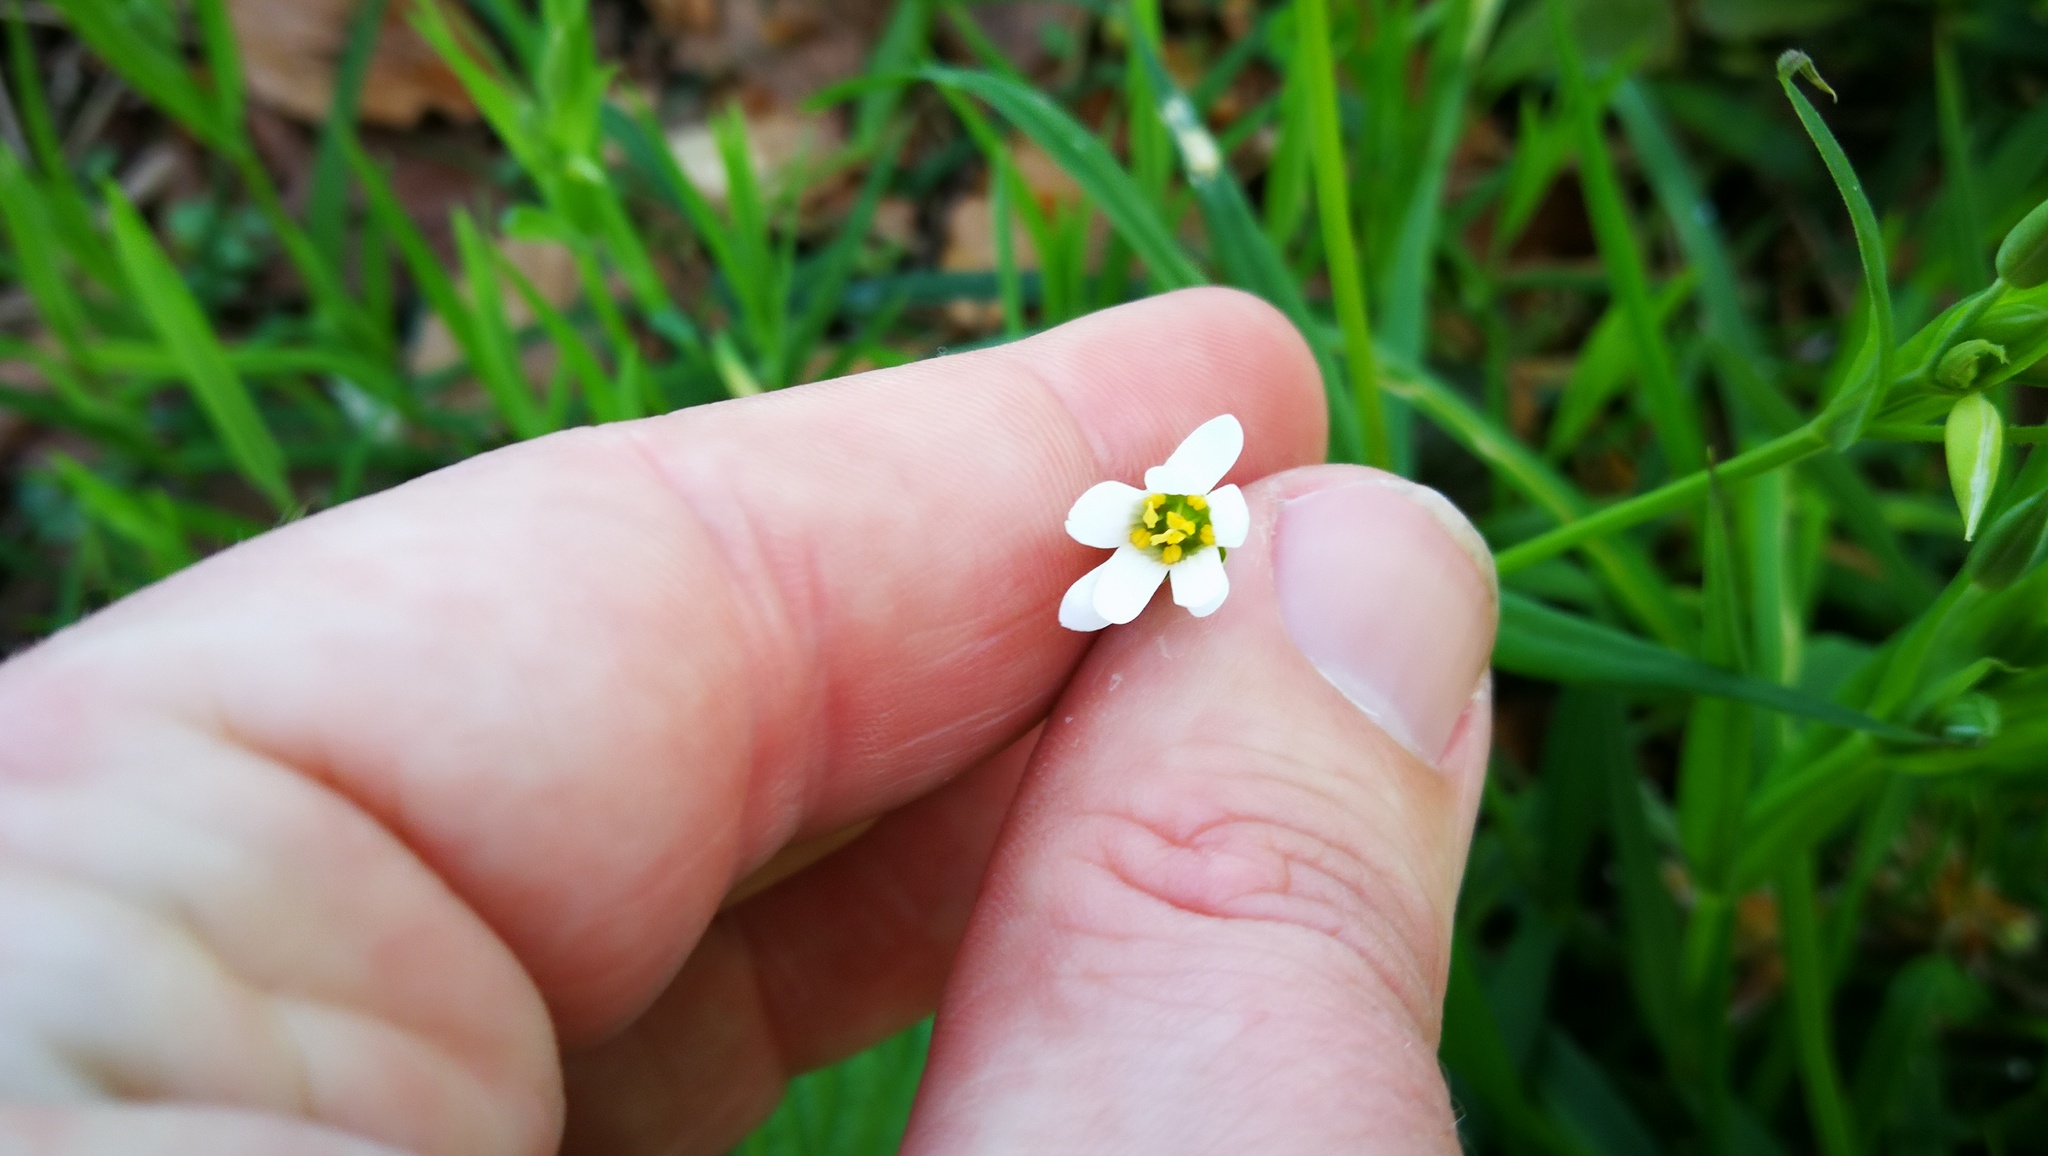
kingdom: Plantae
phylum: Tracheophyta
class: Magnoliopsida
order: Caryophyllales
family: Caryophyllaceae
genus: Rabelera
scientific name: Rabelera holostea
